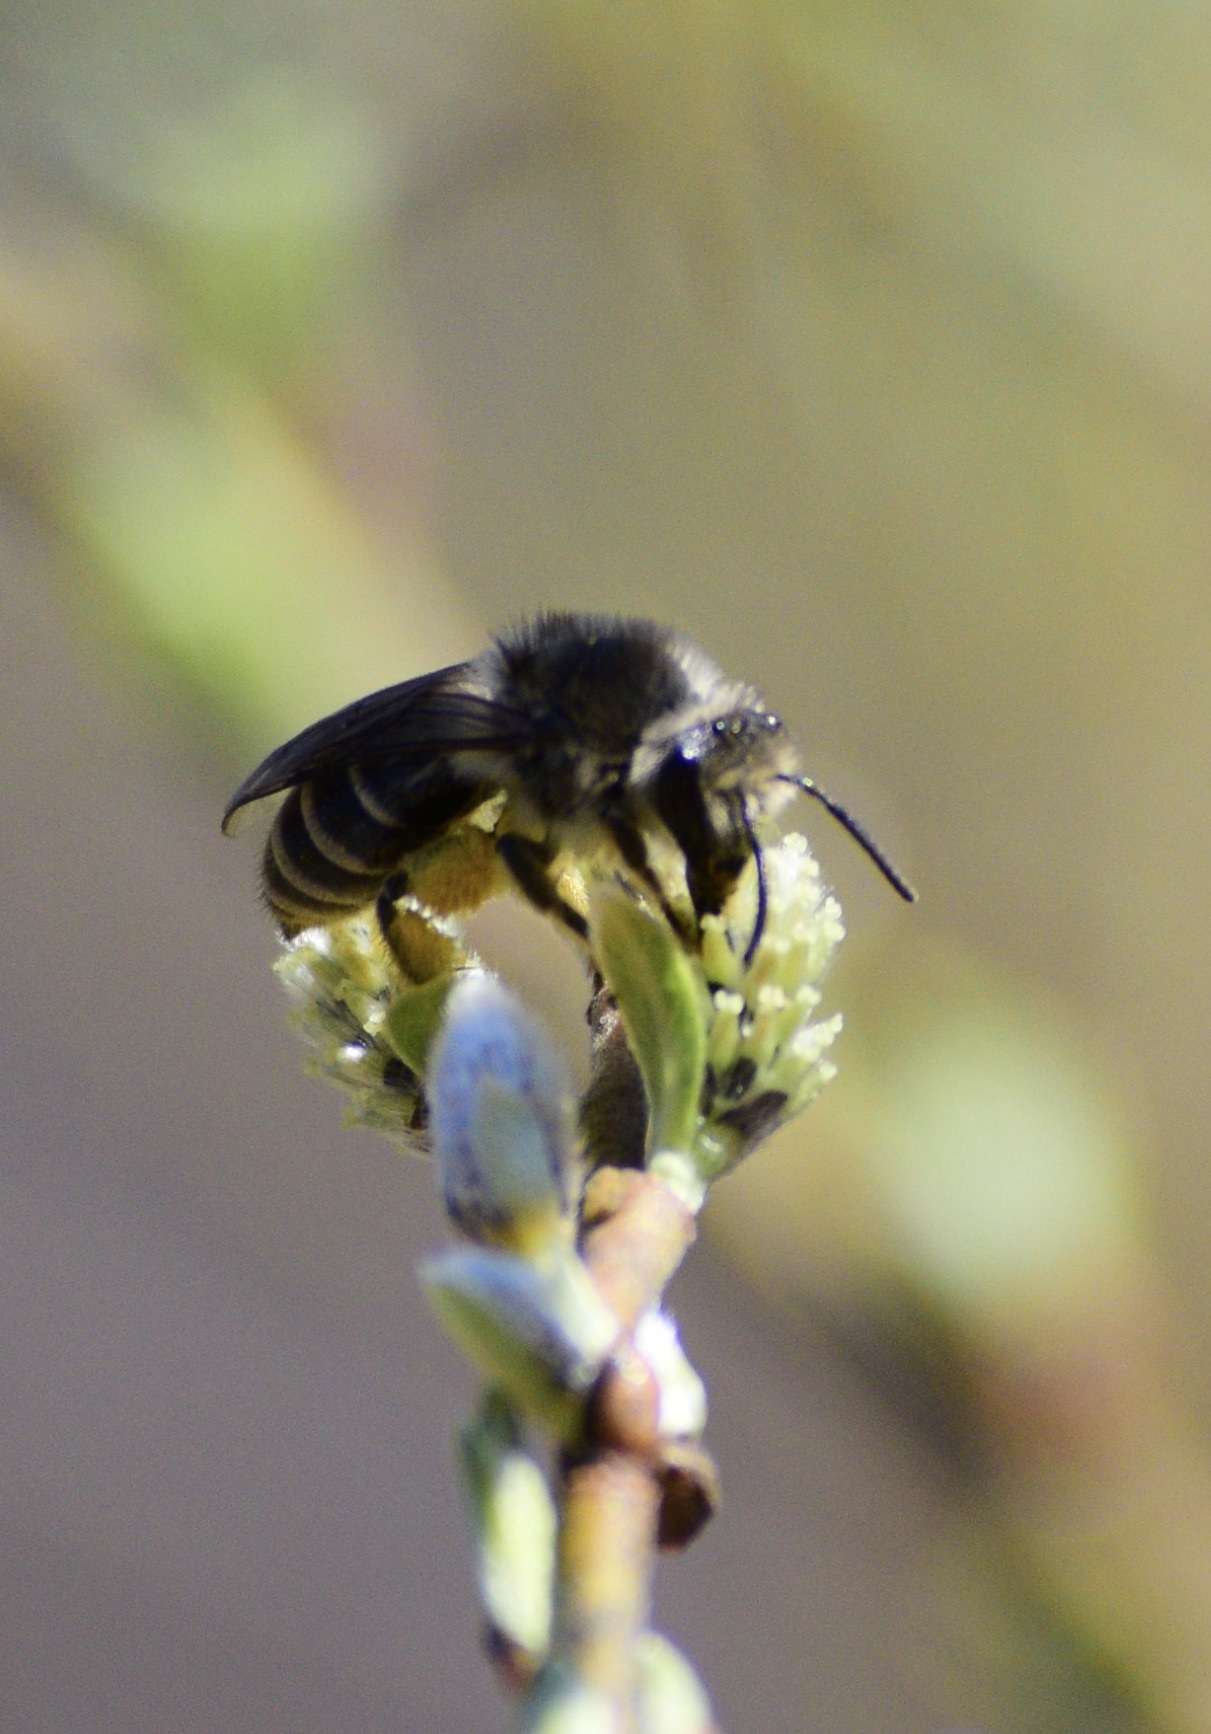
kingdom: Animalia
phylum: Arthropoda
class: Insecta
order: Hymenoptera
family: Colletidae
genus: Colletes
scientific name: Colletes inaequalis
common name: Unequal cellophane bee
